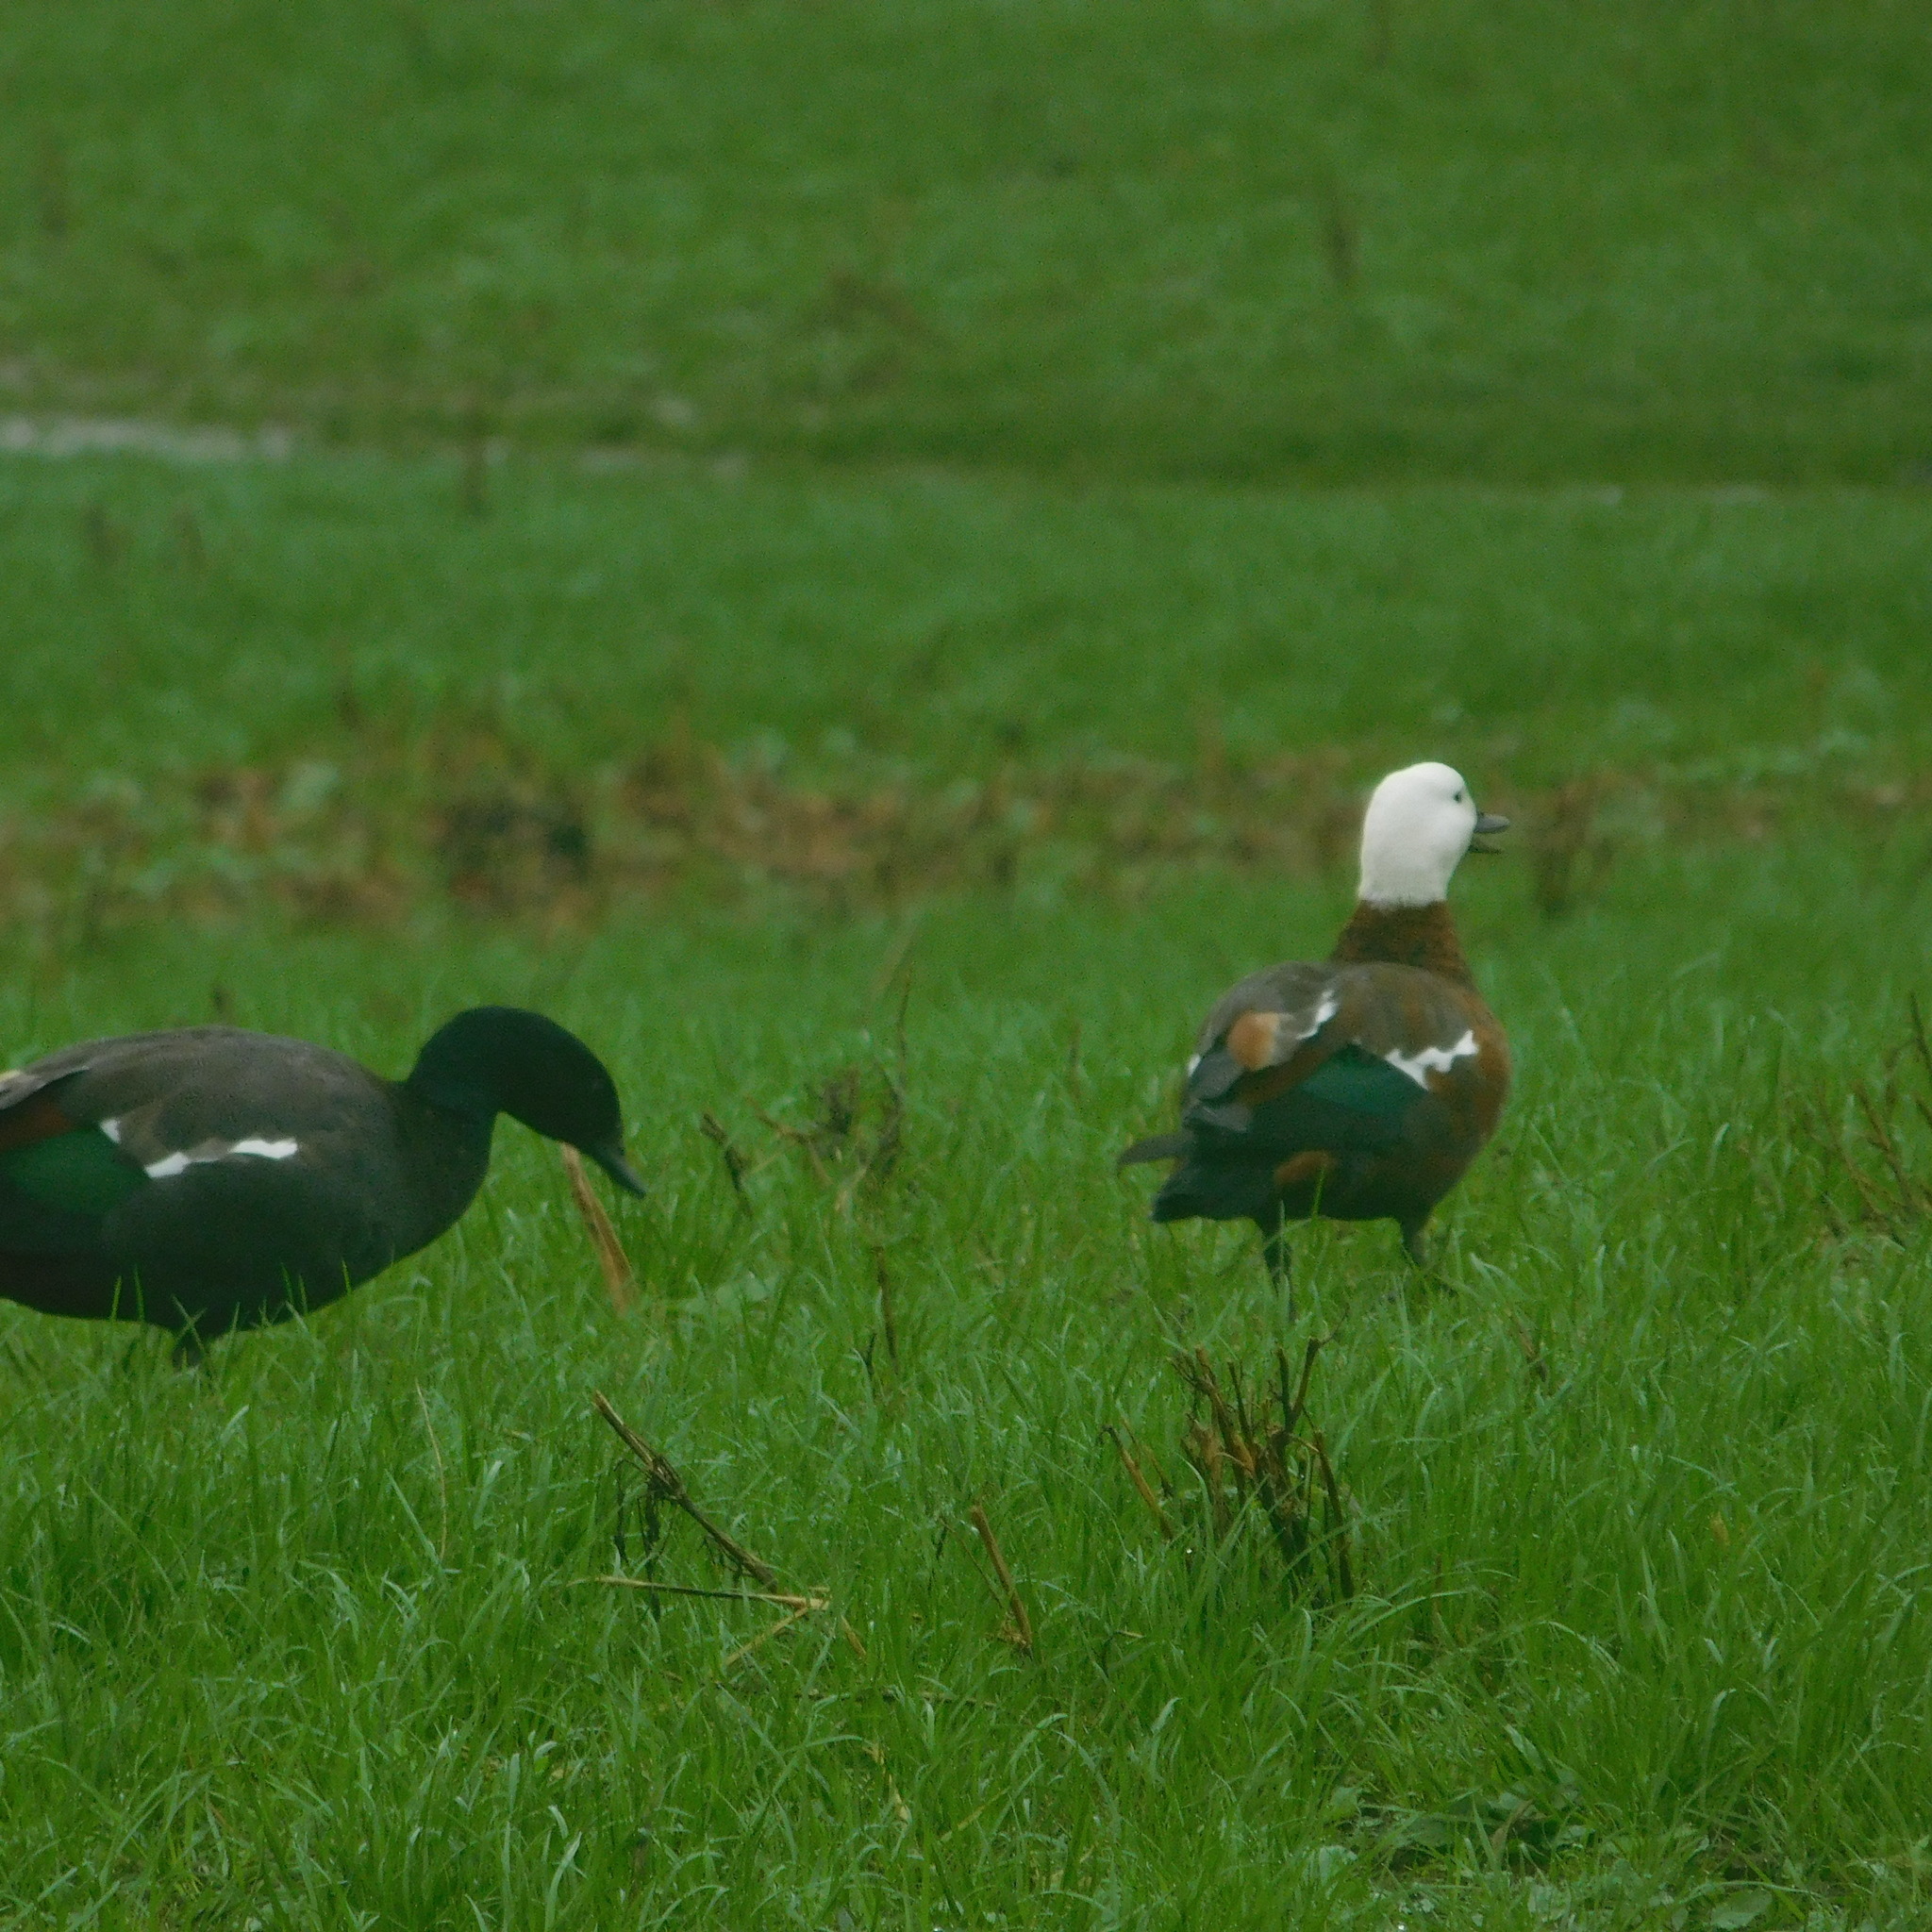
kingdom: Animalia
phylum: Chordata
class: Aves
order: Anseriformes
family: Anatidae
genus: Tadorna
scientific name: Tadorna variegata
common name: Paradise shelduck
